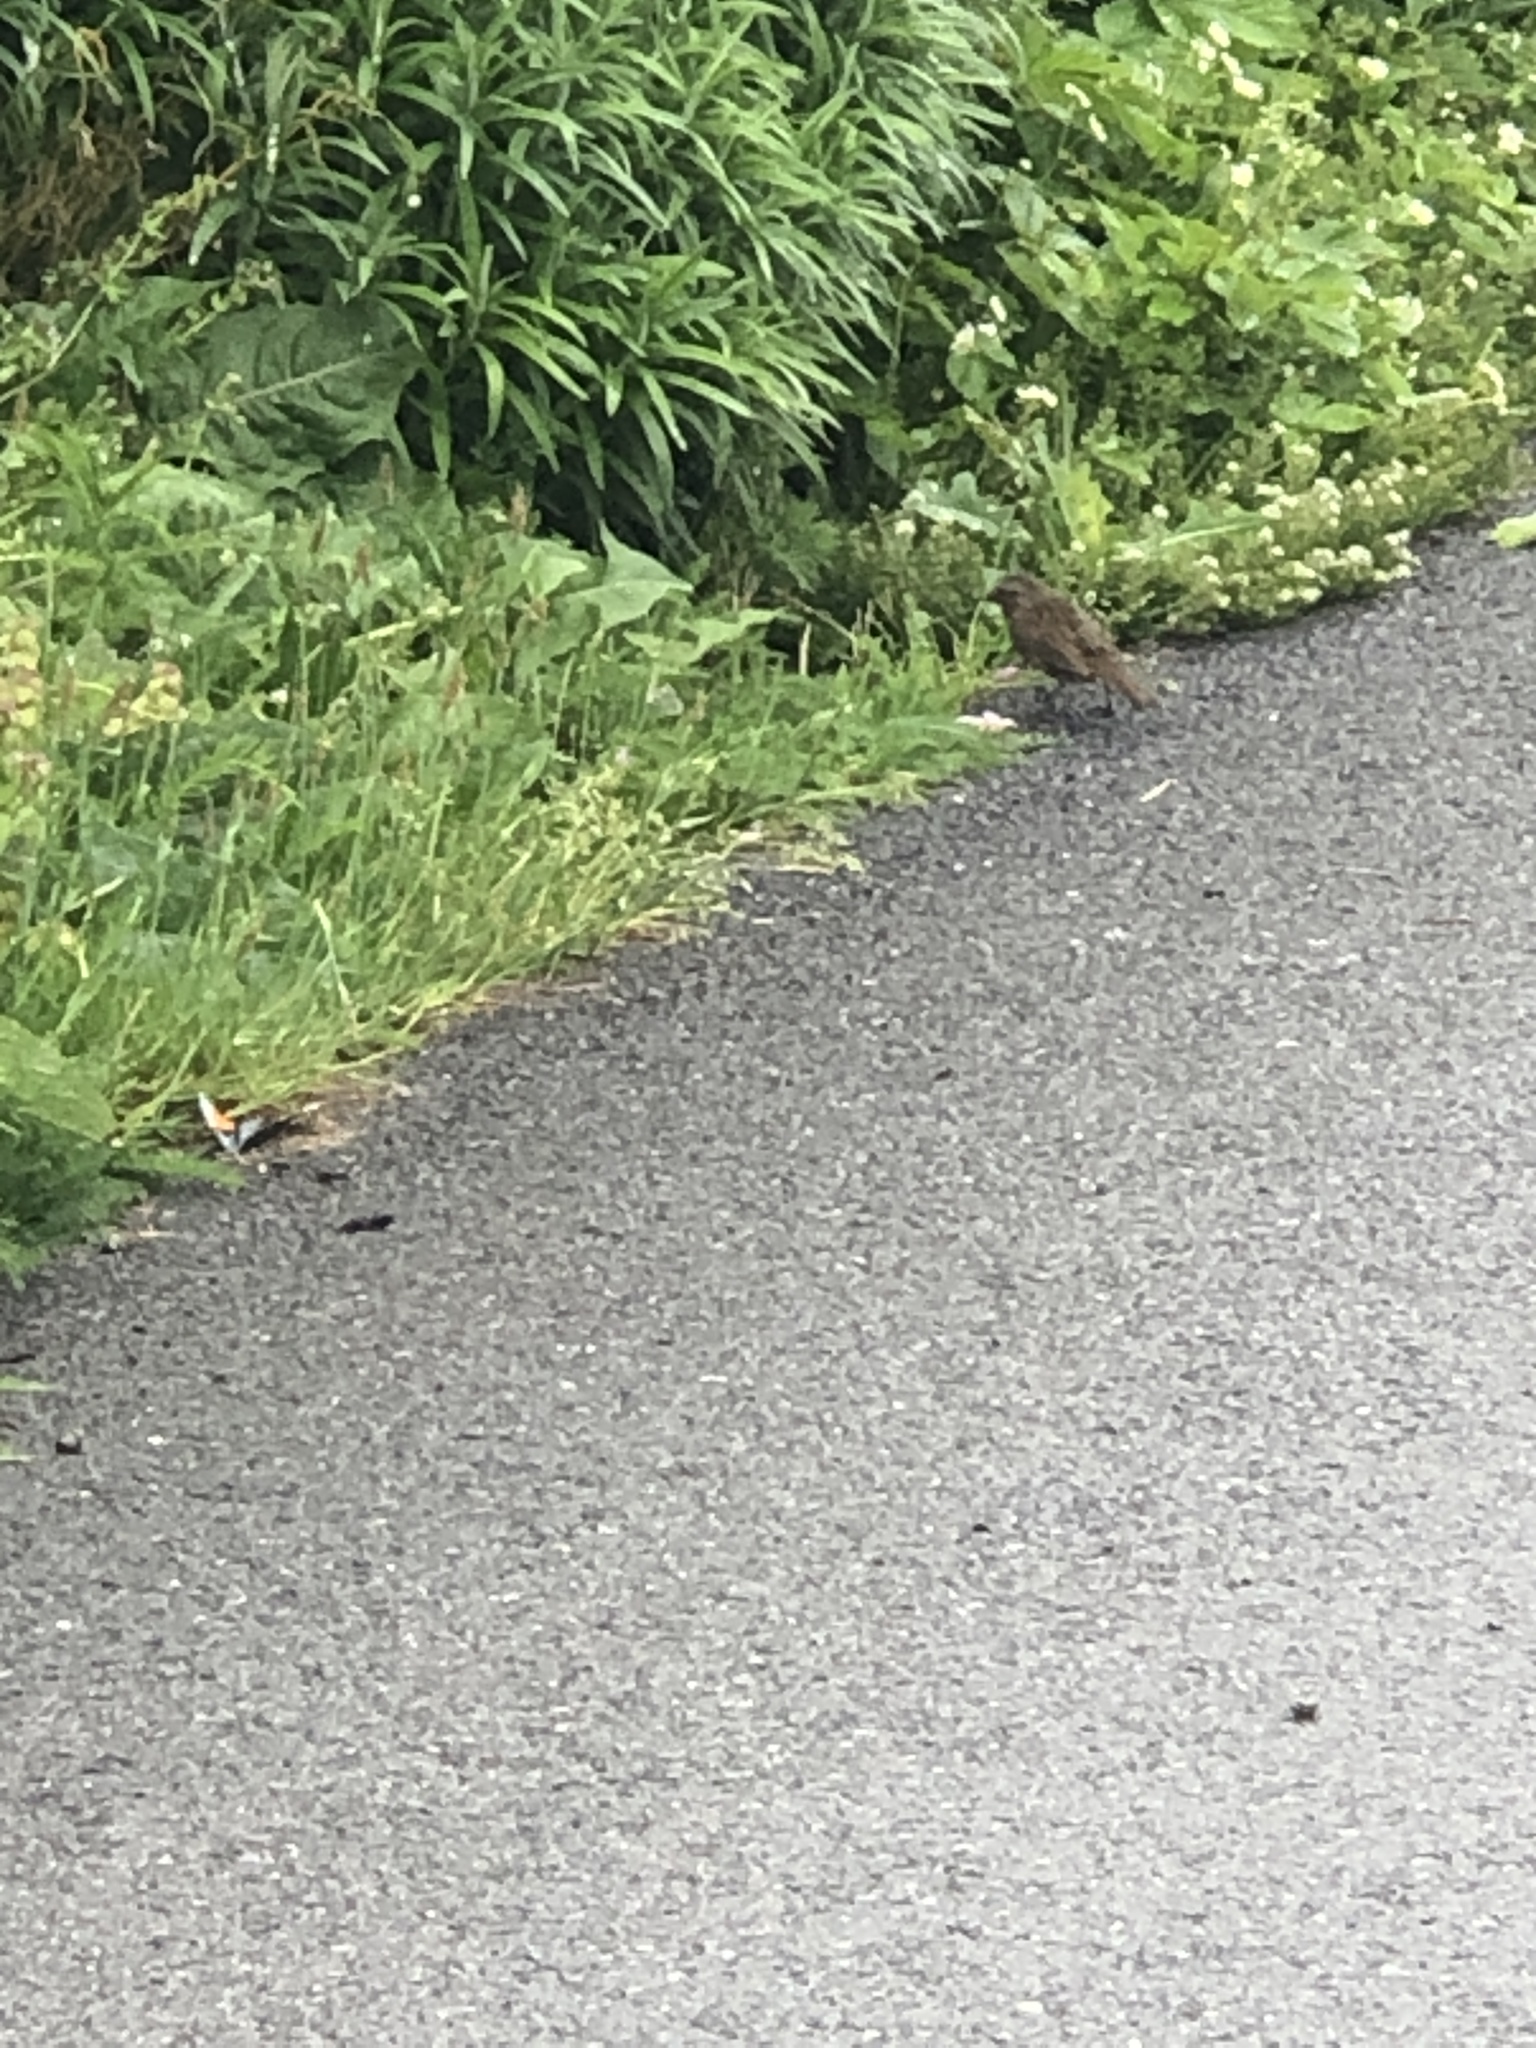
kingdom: Animalia
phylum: Chordata
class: Aves
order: Passeriformes
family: Passerellidae
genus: Melospiza
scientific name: Melospiza melodia
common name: Song sparrow
